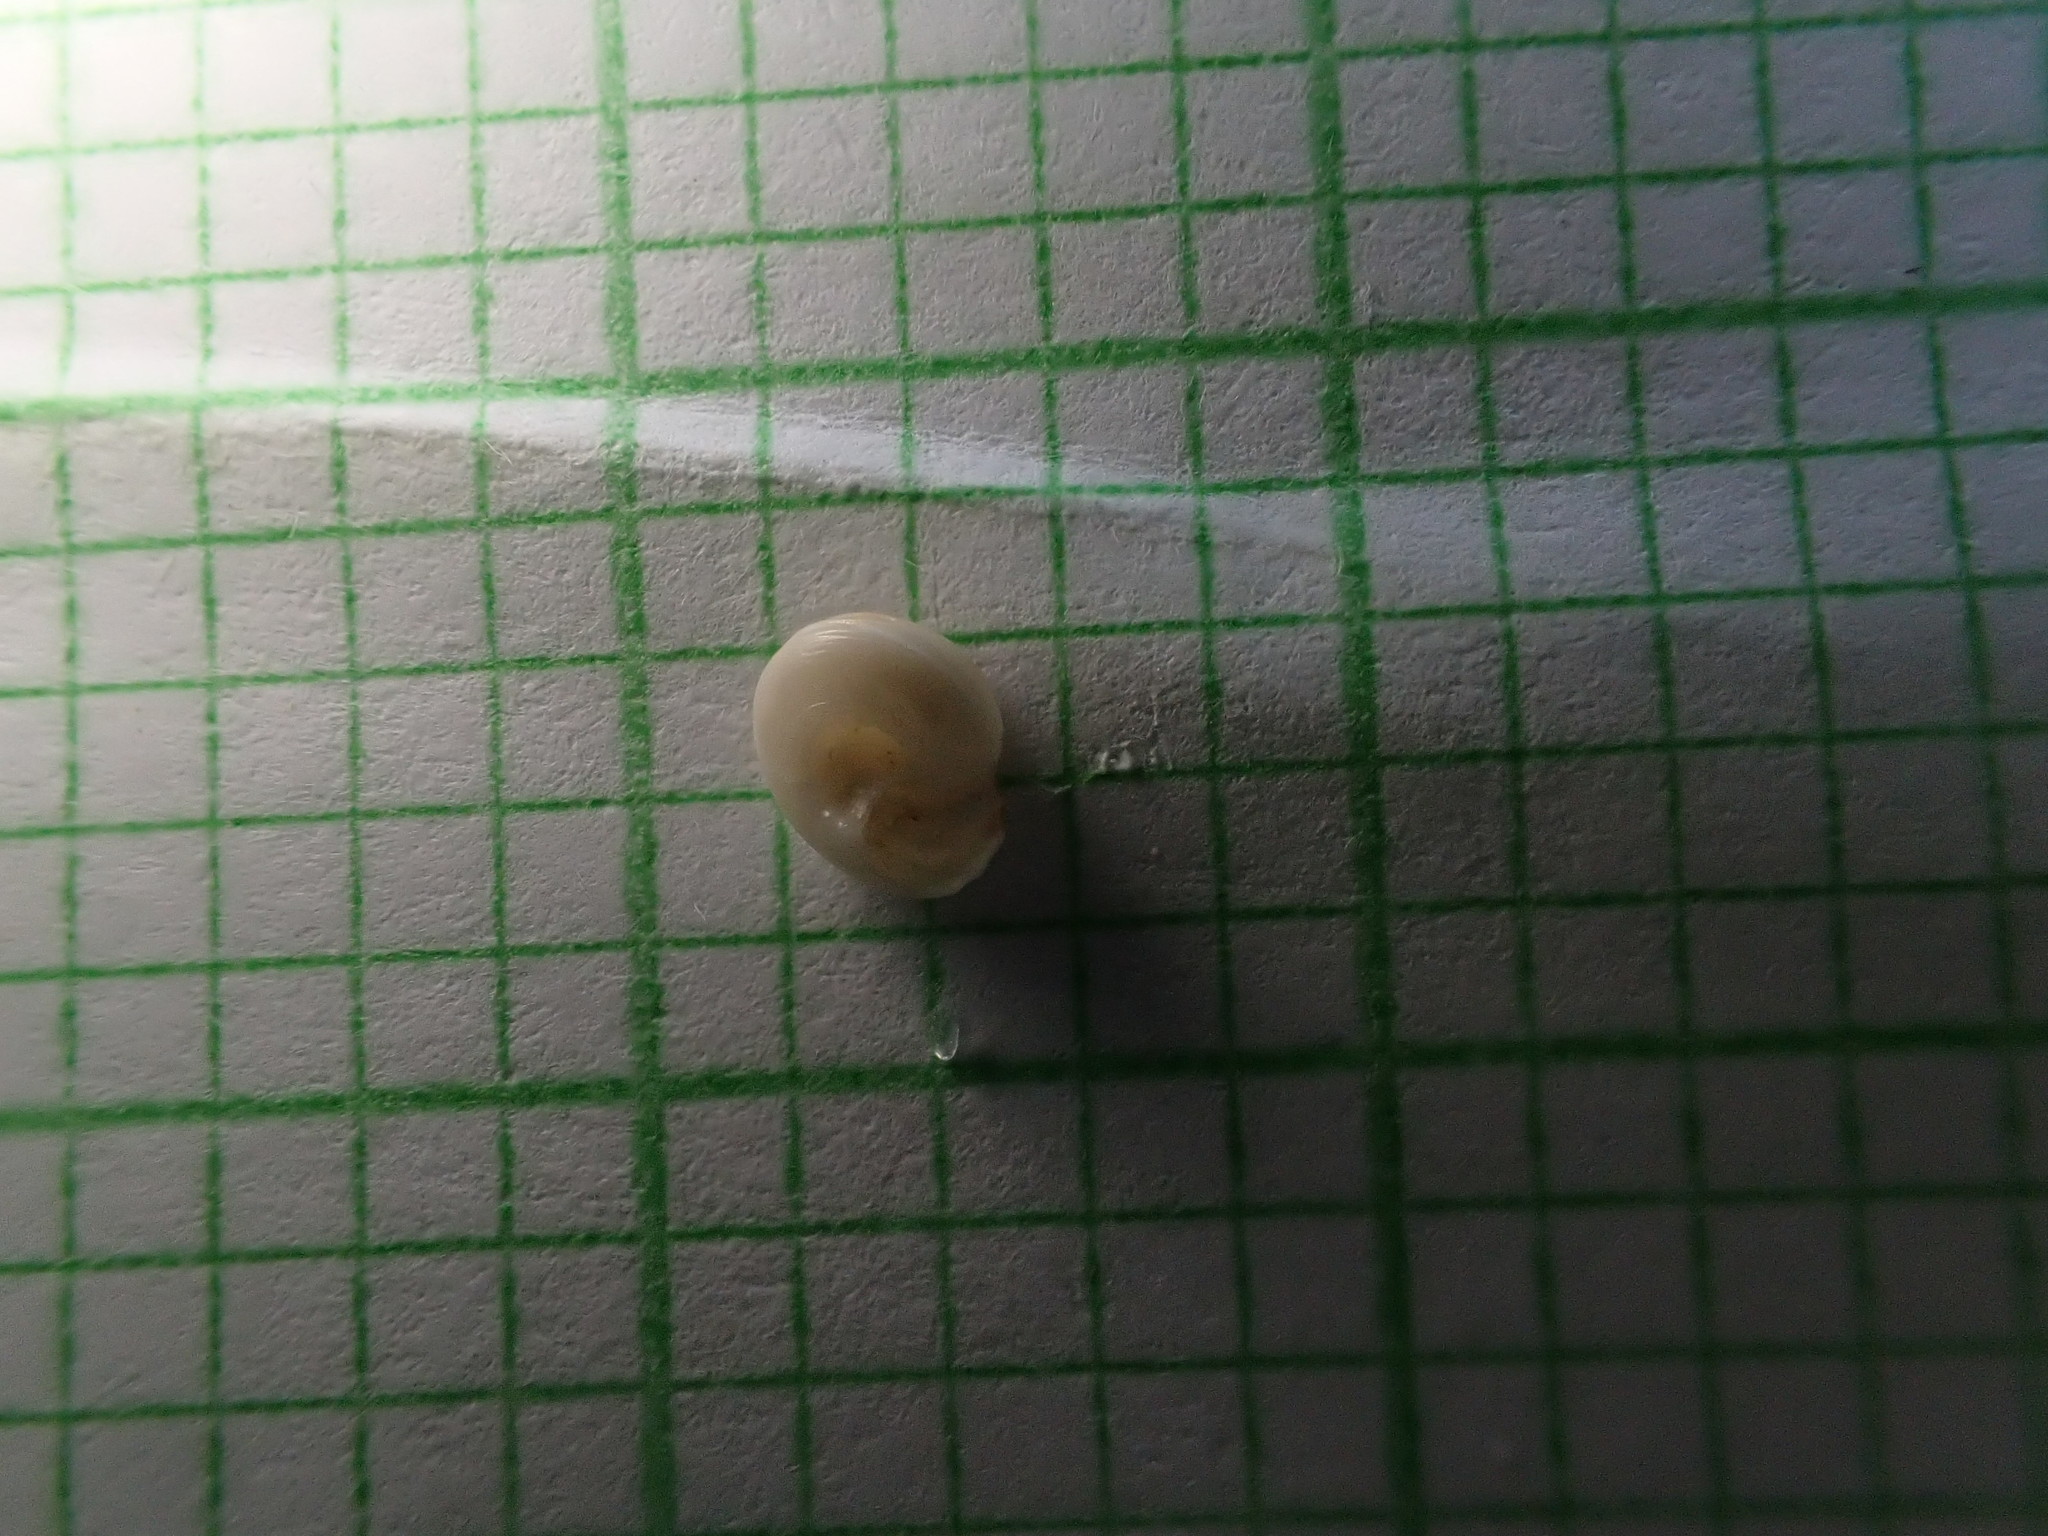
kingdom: Animalia
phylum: Mollusca
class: Gastropoda
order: Trochida
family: Trochidae
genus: Antisolarium
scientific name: Antisolarium egenum
